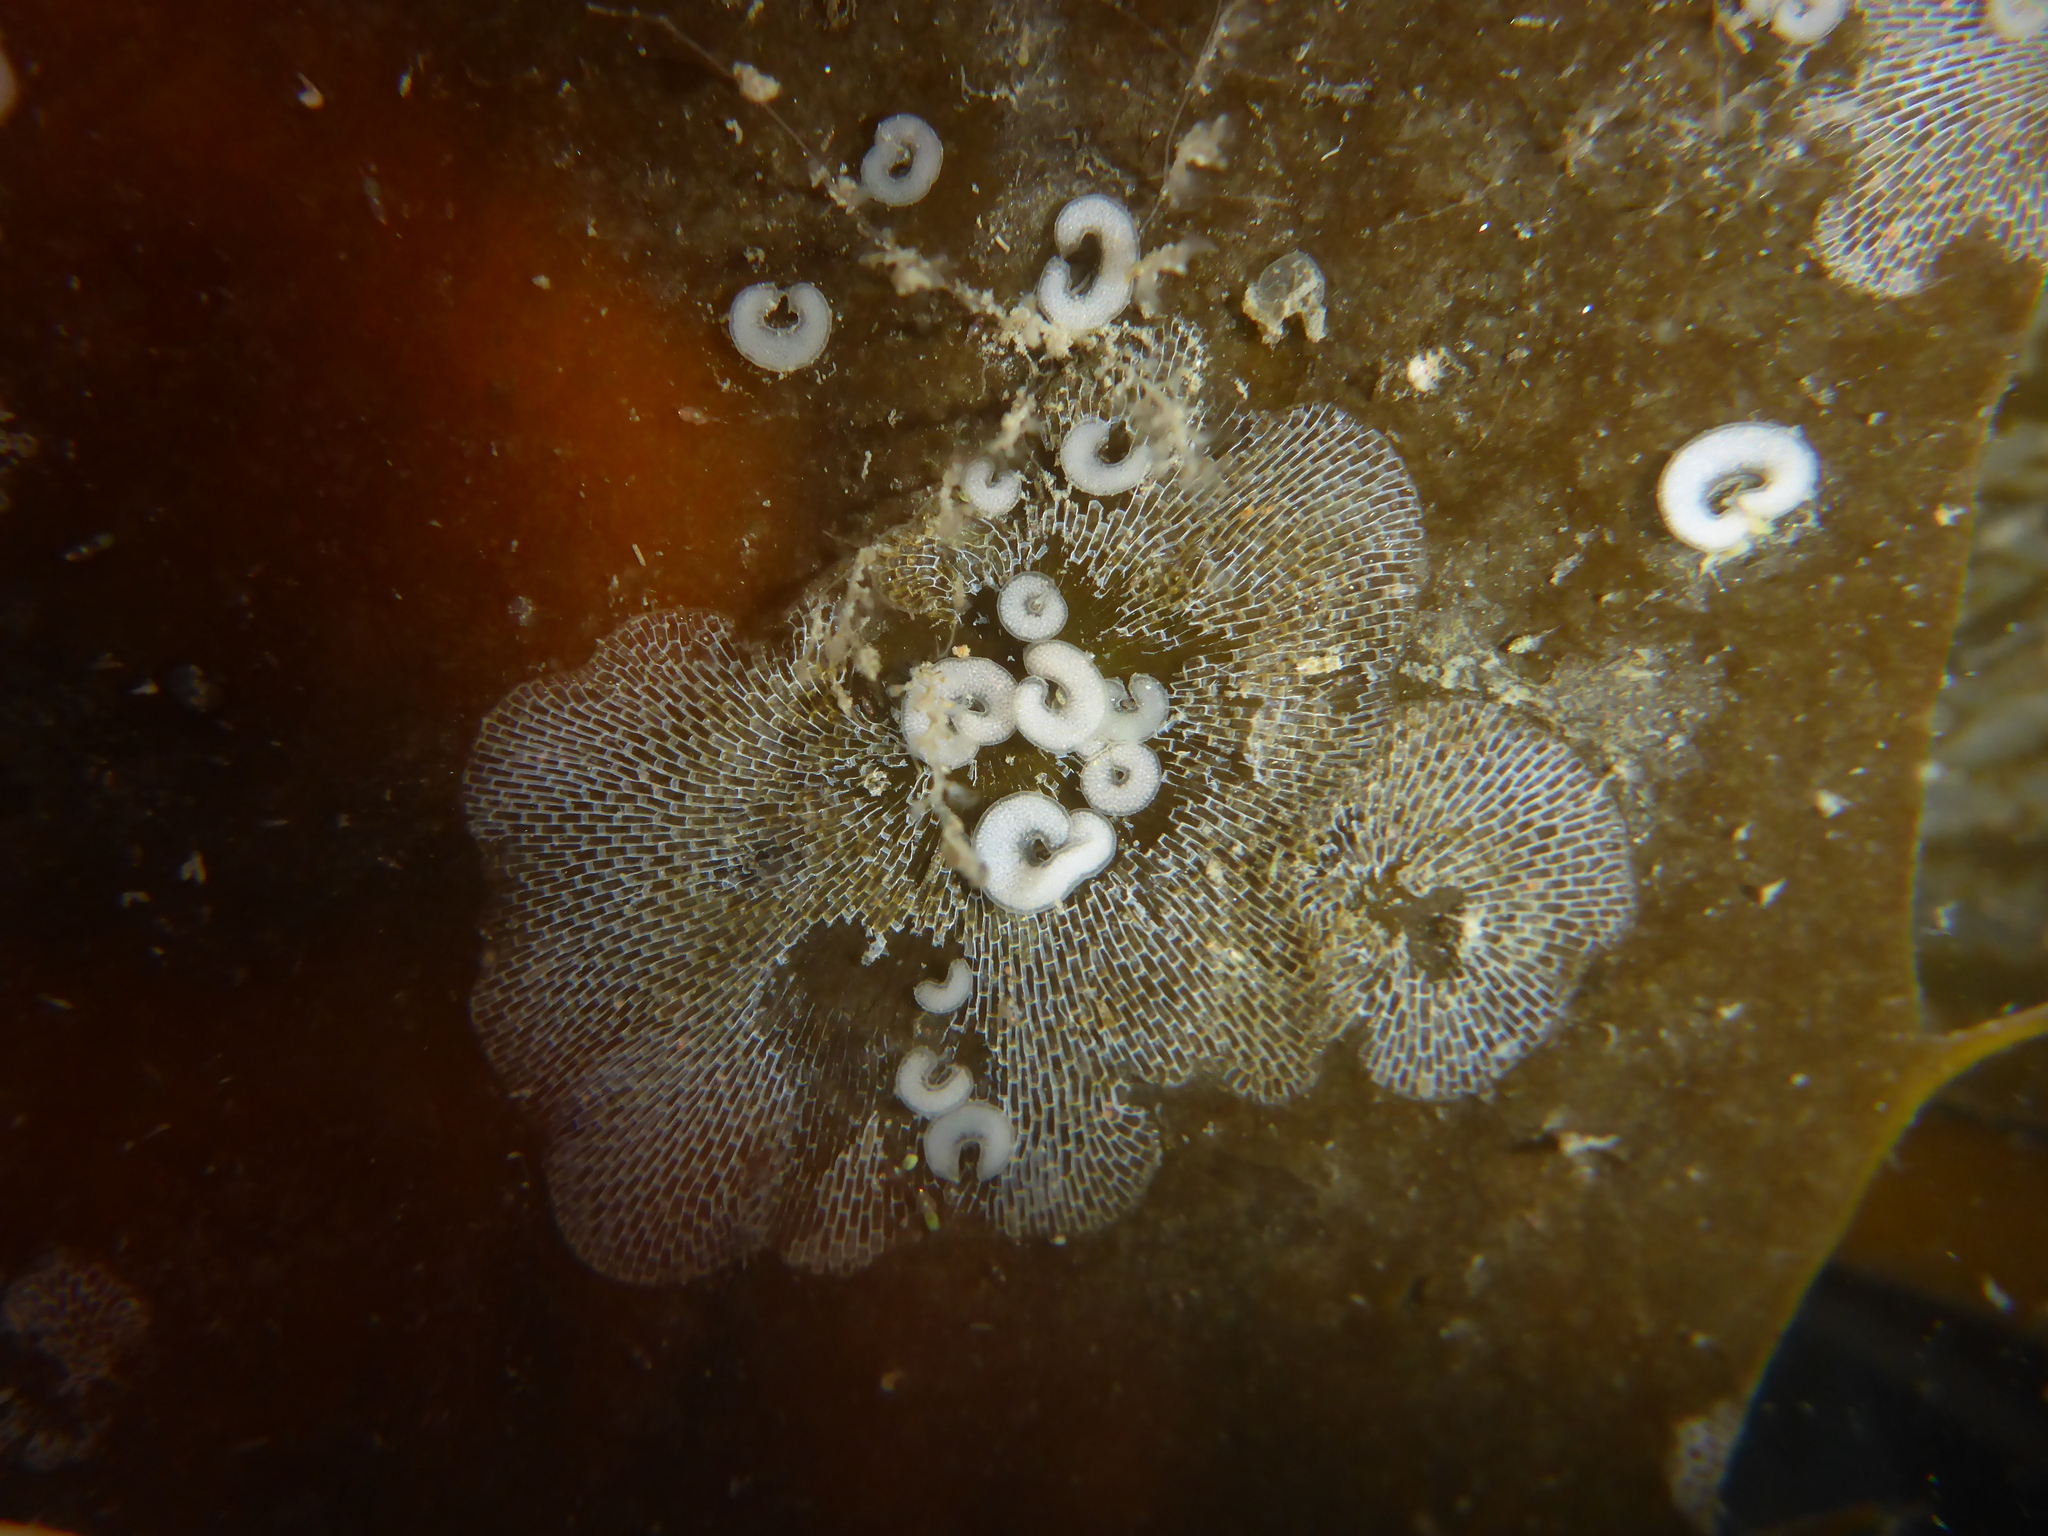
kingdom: Animalia
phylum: Mollusca
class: Gastropoda
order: Nudibranchia
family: Corambidae
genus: Corambe
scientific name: Corambe steinbergae
